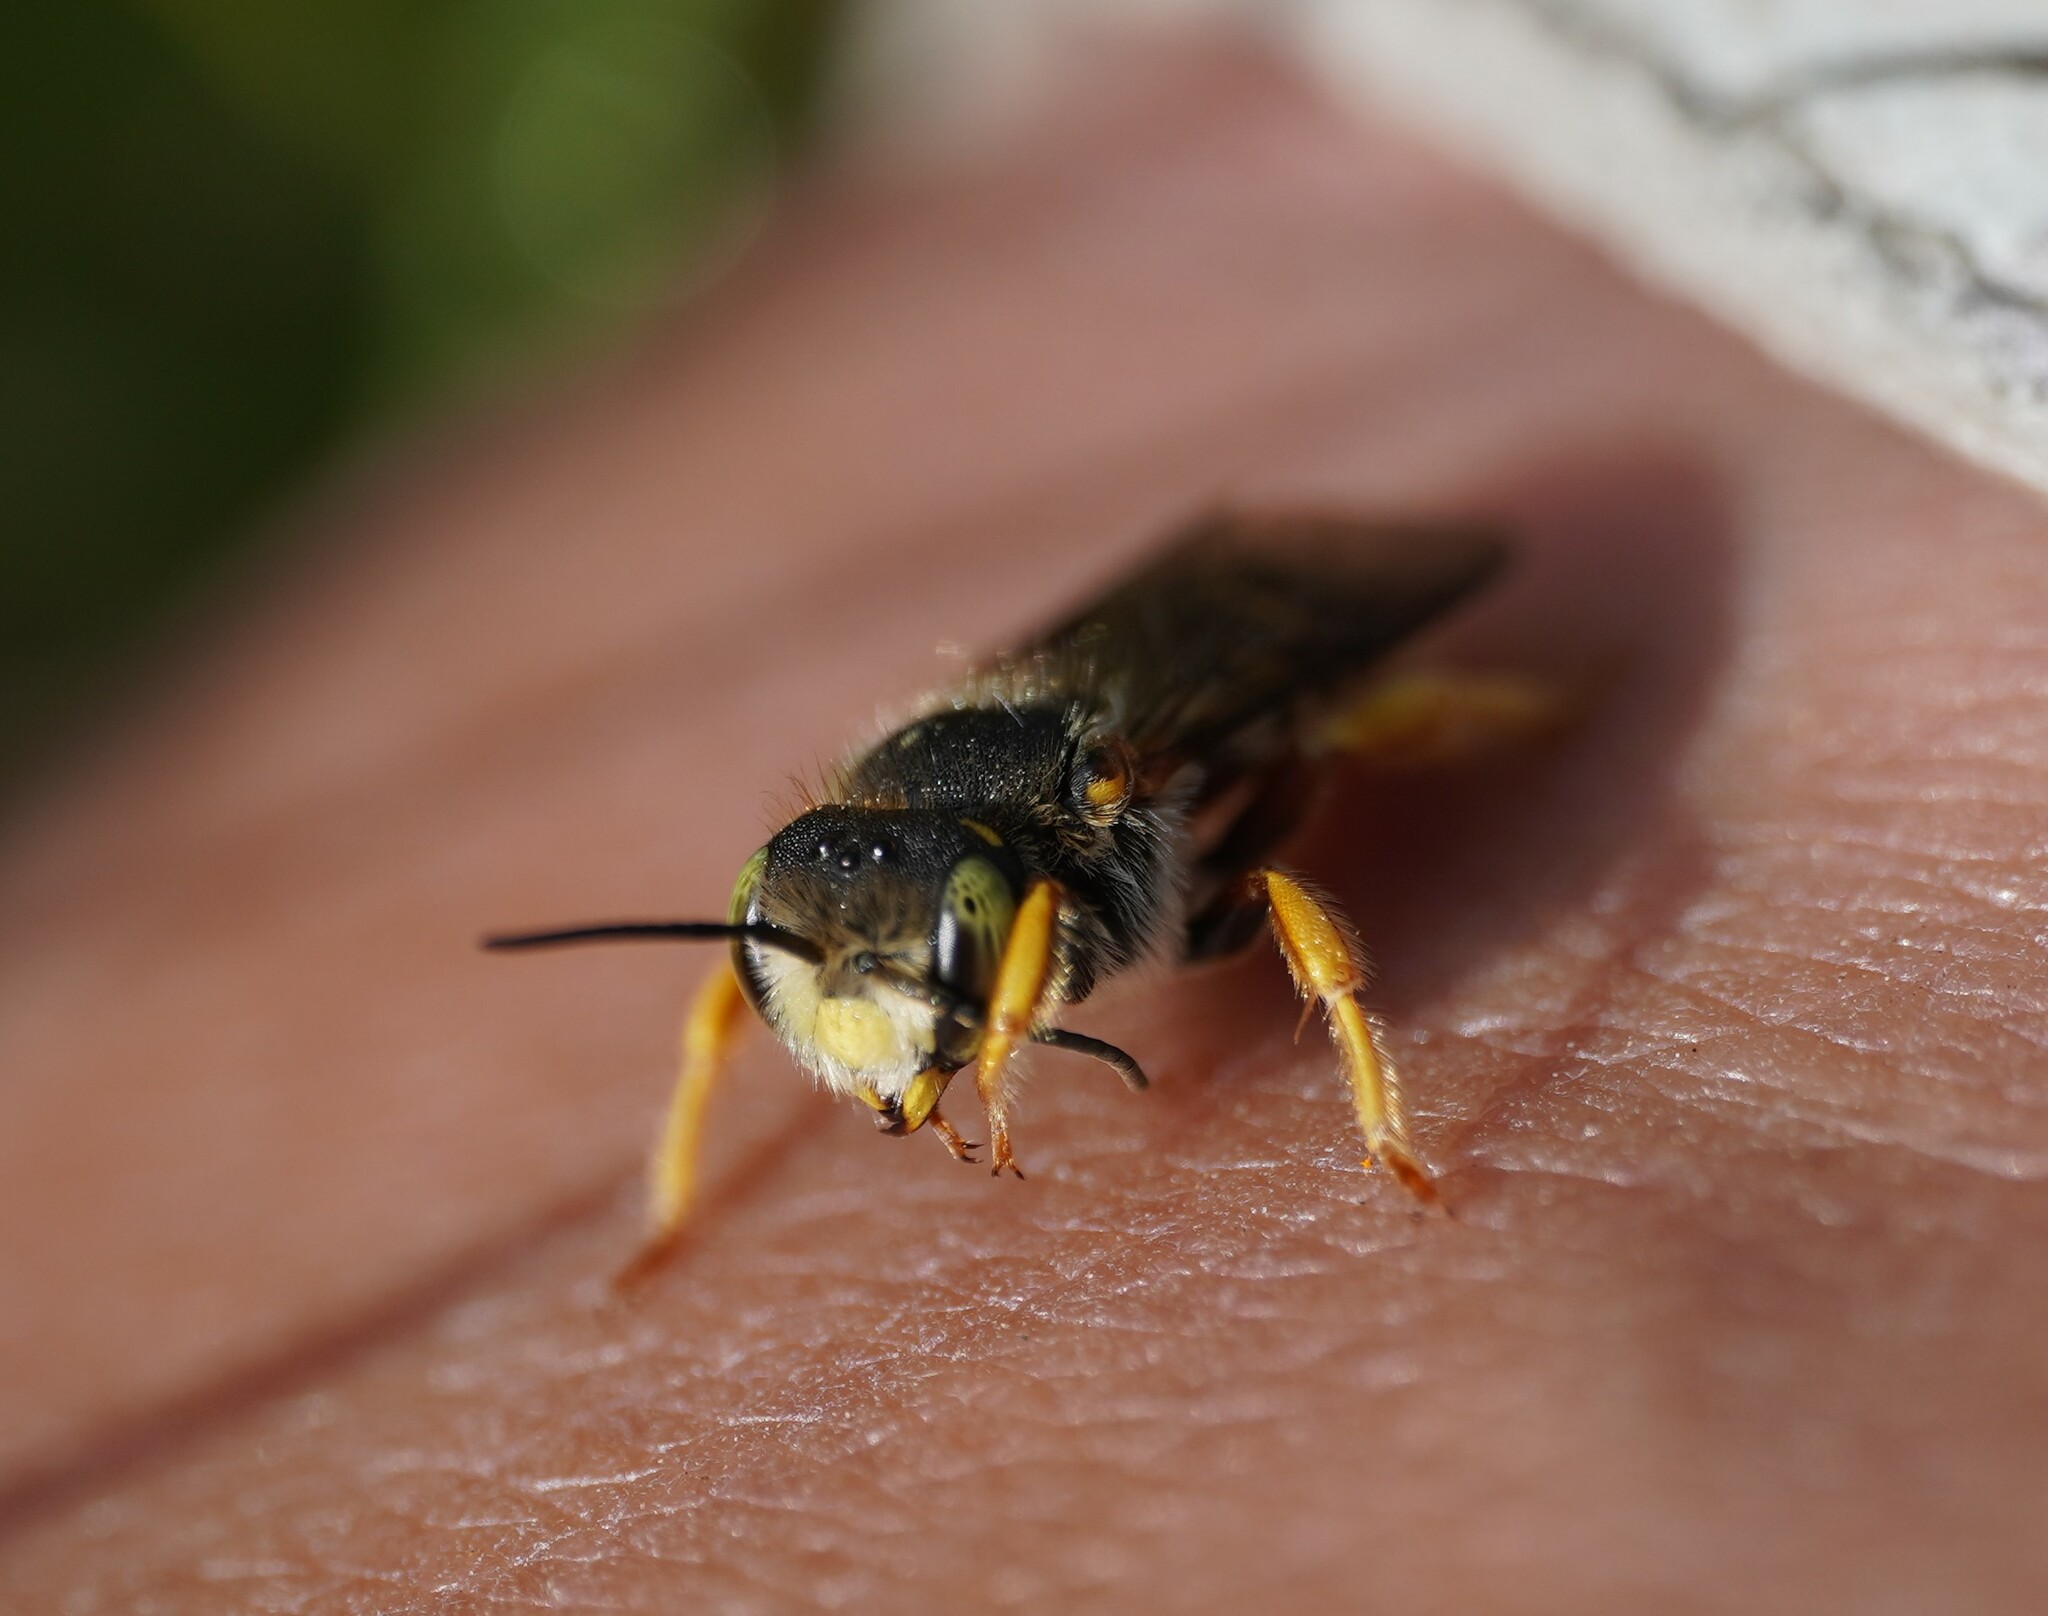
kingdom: Animalia
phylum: Arthropoda
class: Insecta
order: Hymenoptera
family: Megachilidae
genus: Anthidium
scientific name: Anthidium oblongatum
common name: Oblong wool carder bee
